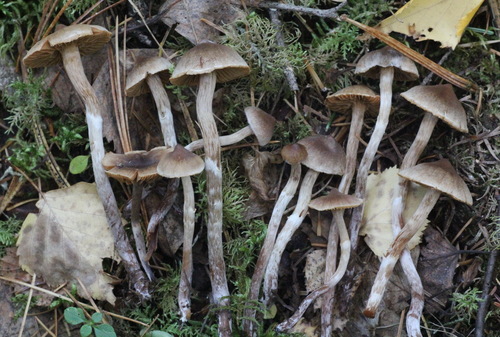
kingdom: Fungi
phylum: Basidiomycota
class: Agaricomycetes
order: Agaricales
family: Cortinariaceae
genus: Cortinarius
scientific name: Cortinarius flexipes
